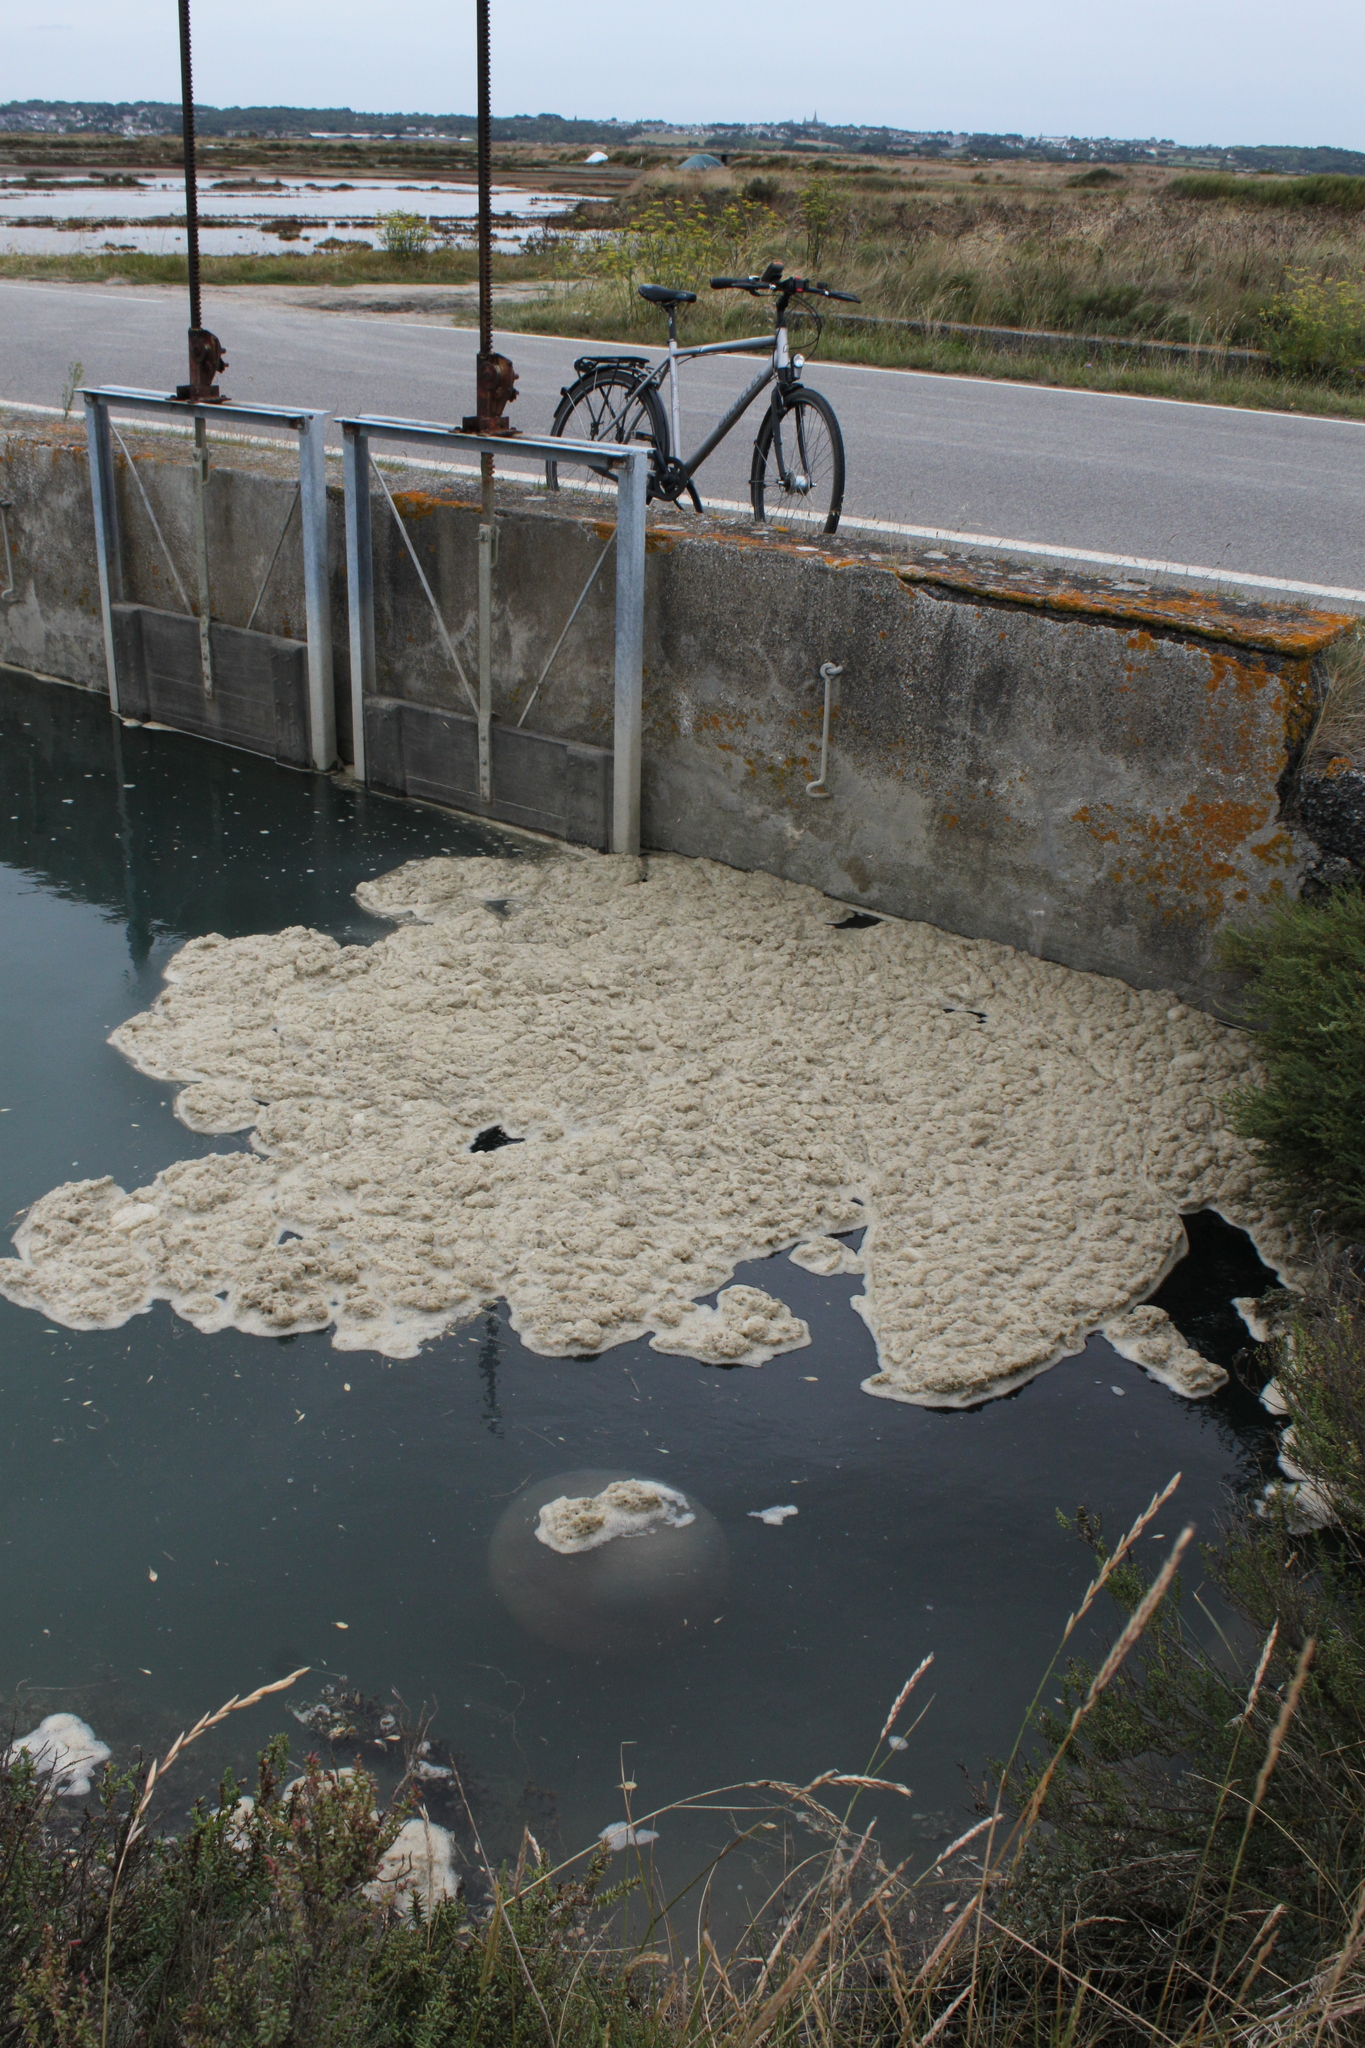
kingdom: Animalia
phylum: Cnidaria
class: Scyphozoa
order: Rhizostomeae
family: Rhizostomatidae
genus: Rhizostoma
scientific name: Rhizostoma octopus
